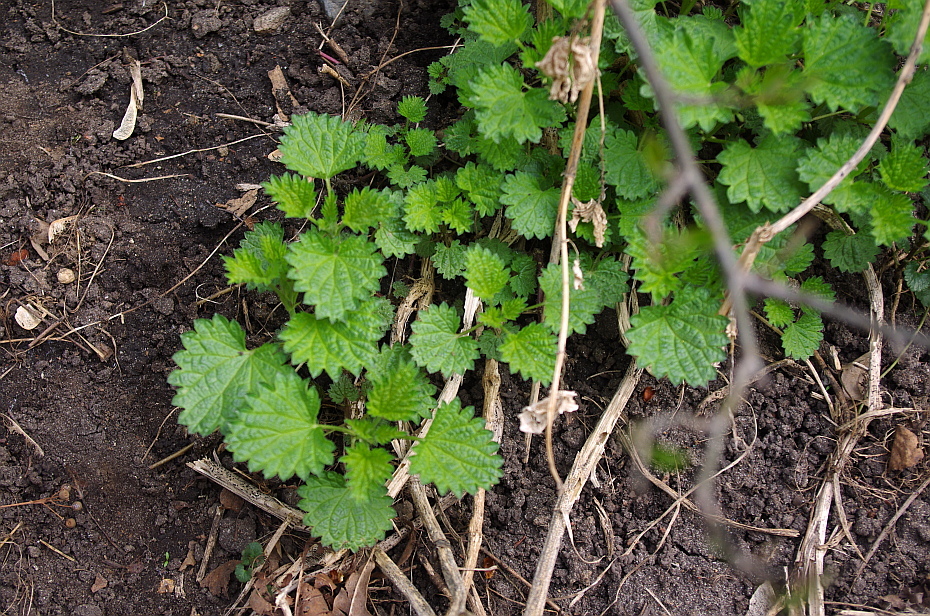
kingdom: Plantae
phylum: Tracheophyta
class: Magnoliopsida
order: Rosales
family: Urticaceae
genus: Urtica
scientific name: Urtica dioica
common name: Common nettle
